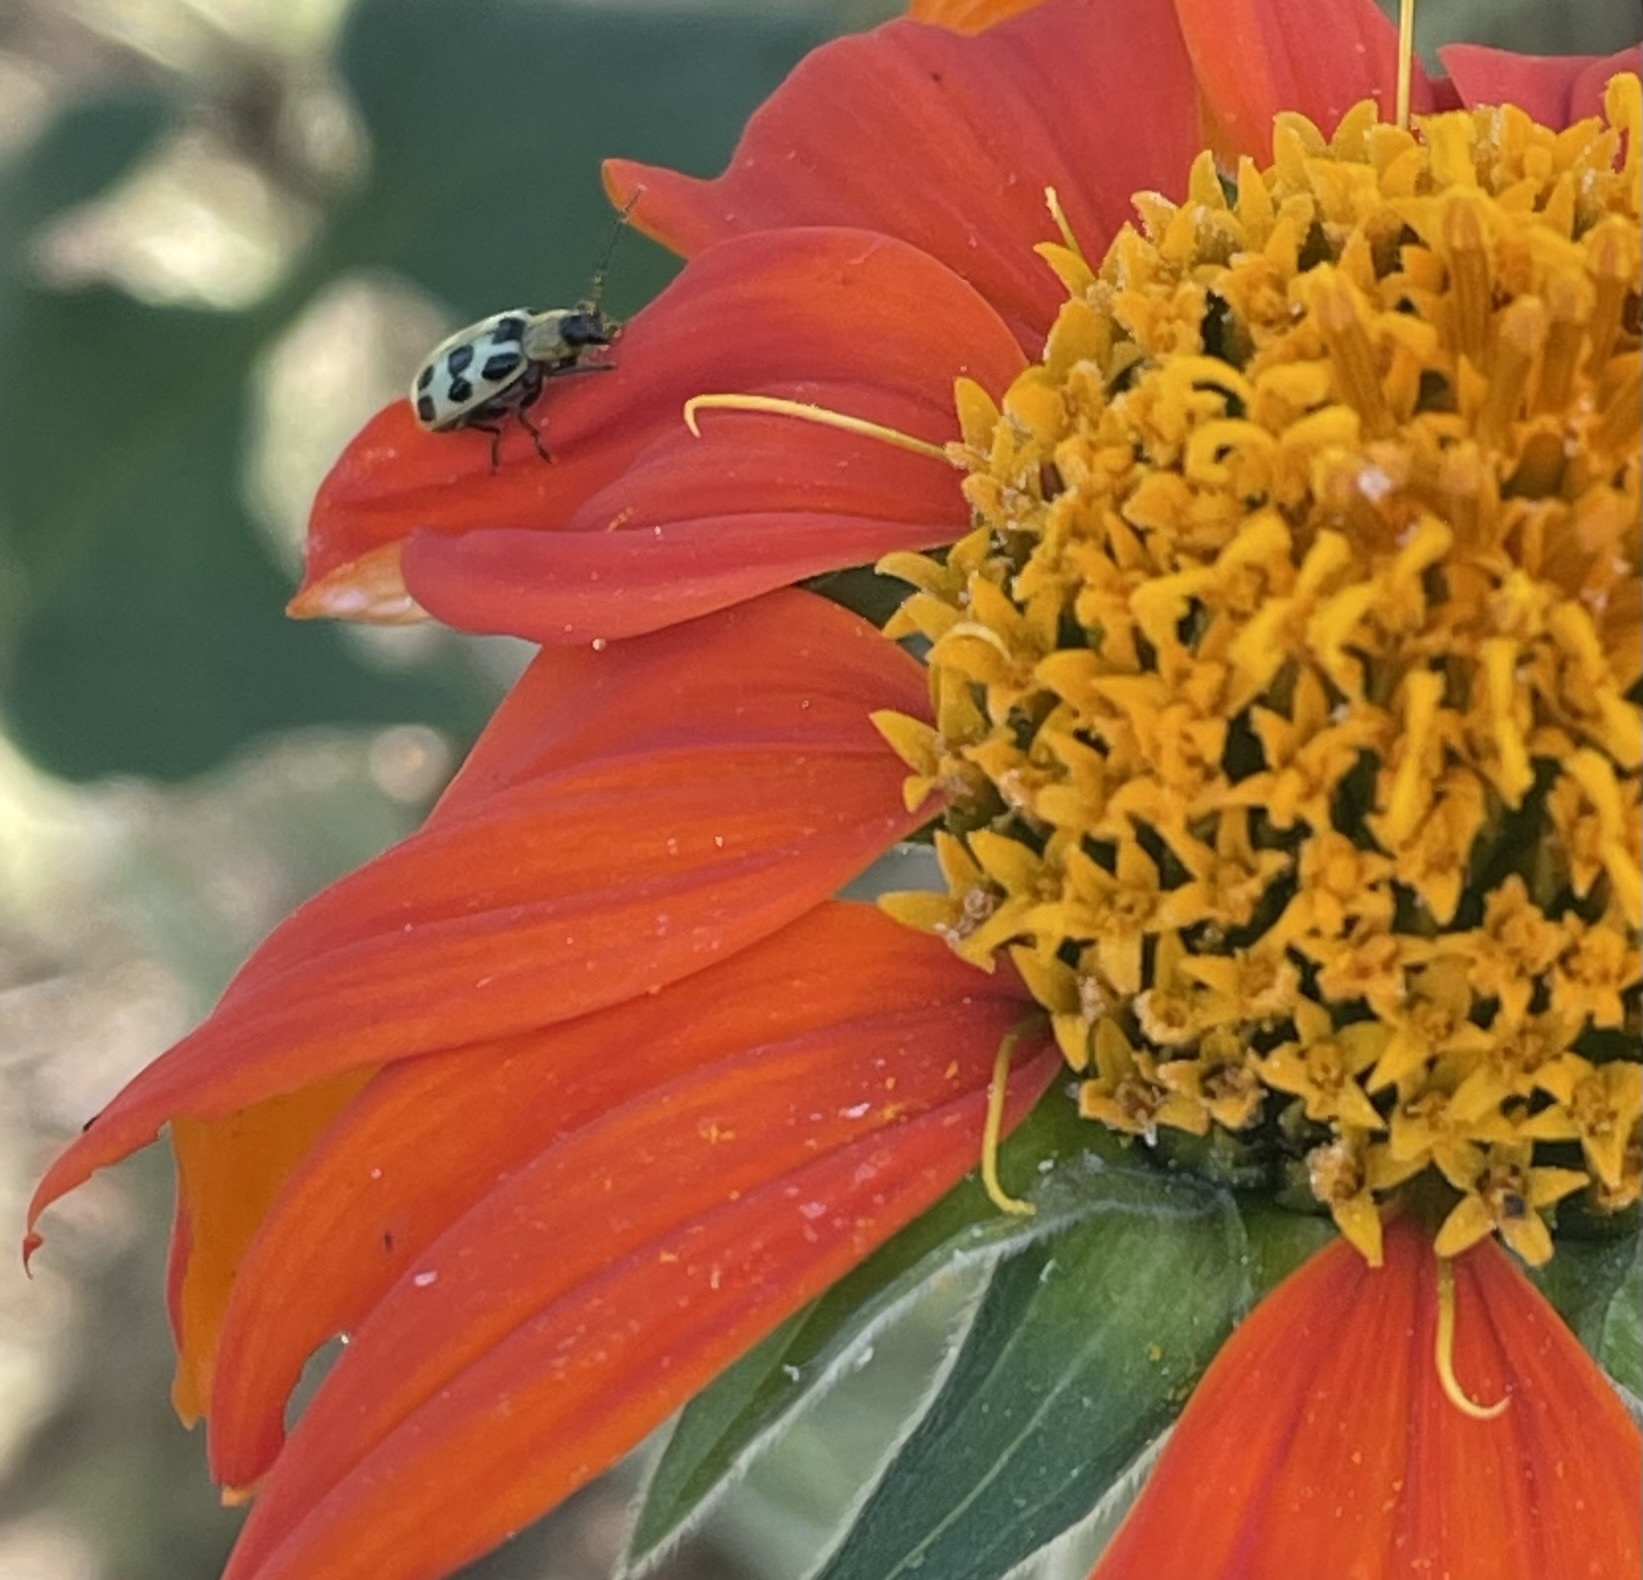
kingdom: Animalia
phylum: Arthropoda
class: Insecta
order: Coleoptera
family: Chrysomelidae
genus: Diabrotica
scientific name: Diabrotica undecimpunctata
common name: Spotted cucumber beetle
